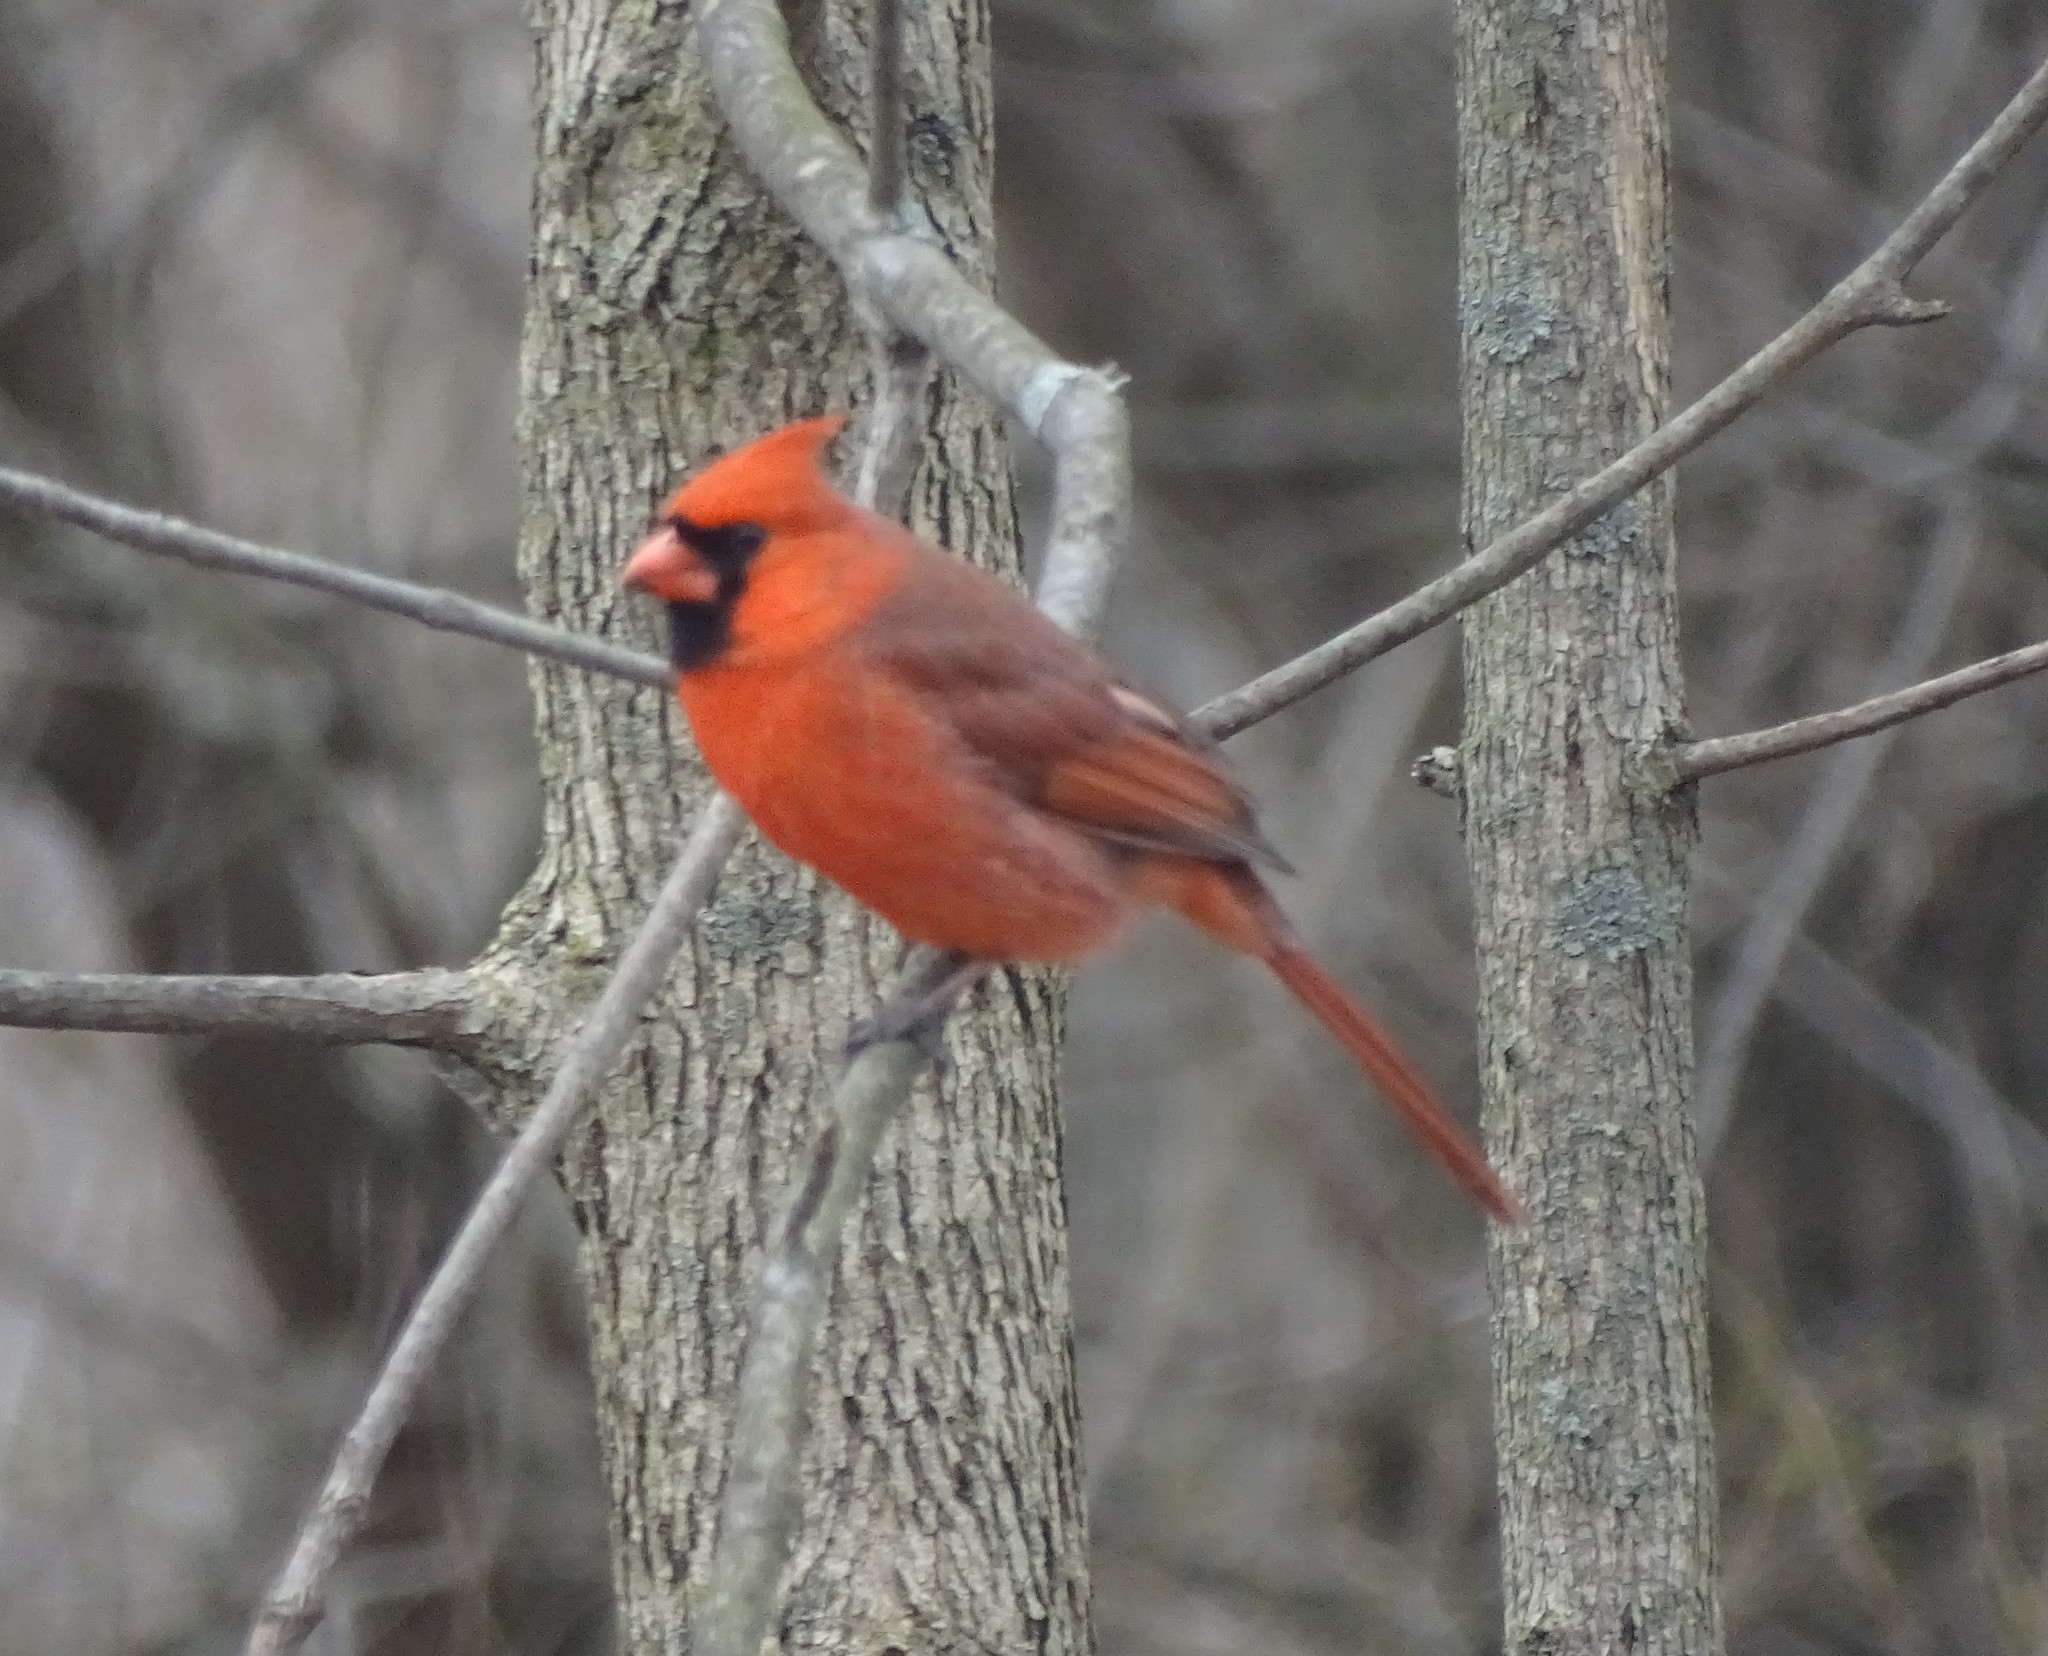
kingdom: Animalia
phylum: Chordata
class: Aves
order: Passeriformes
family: Cardinalidae
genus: Cardinalis
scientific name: Cardinalis cardinalis
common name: Northern cardinal
